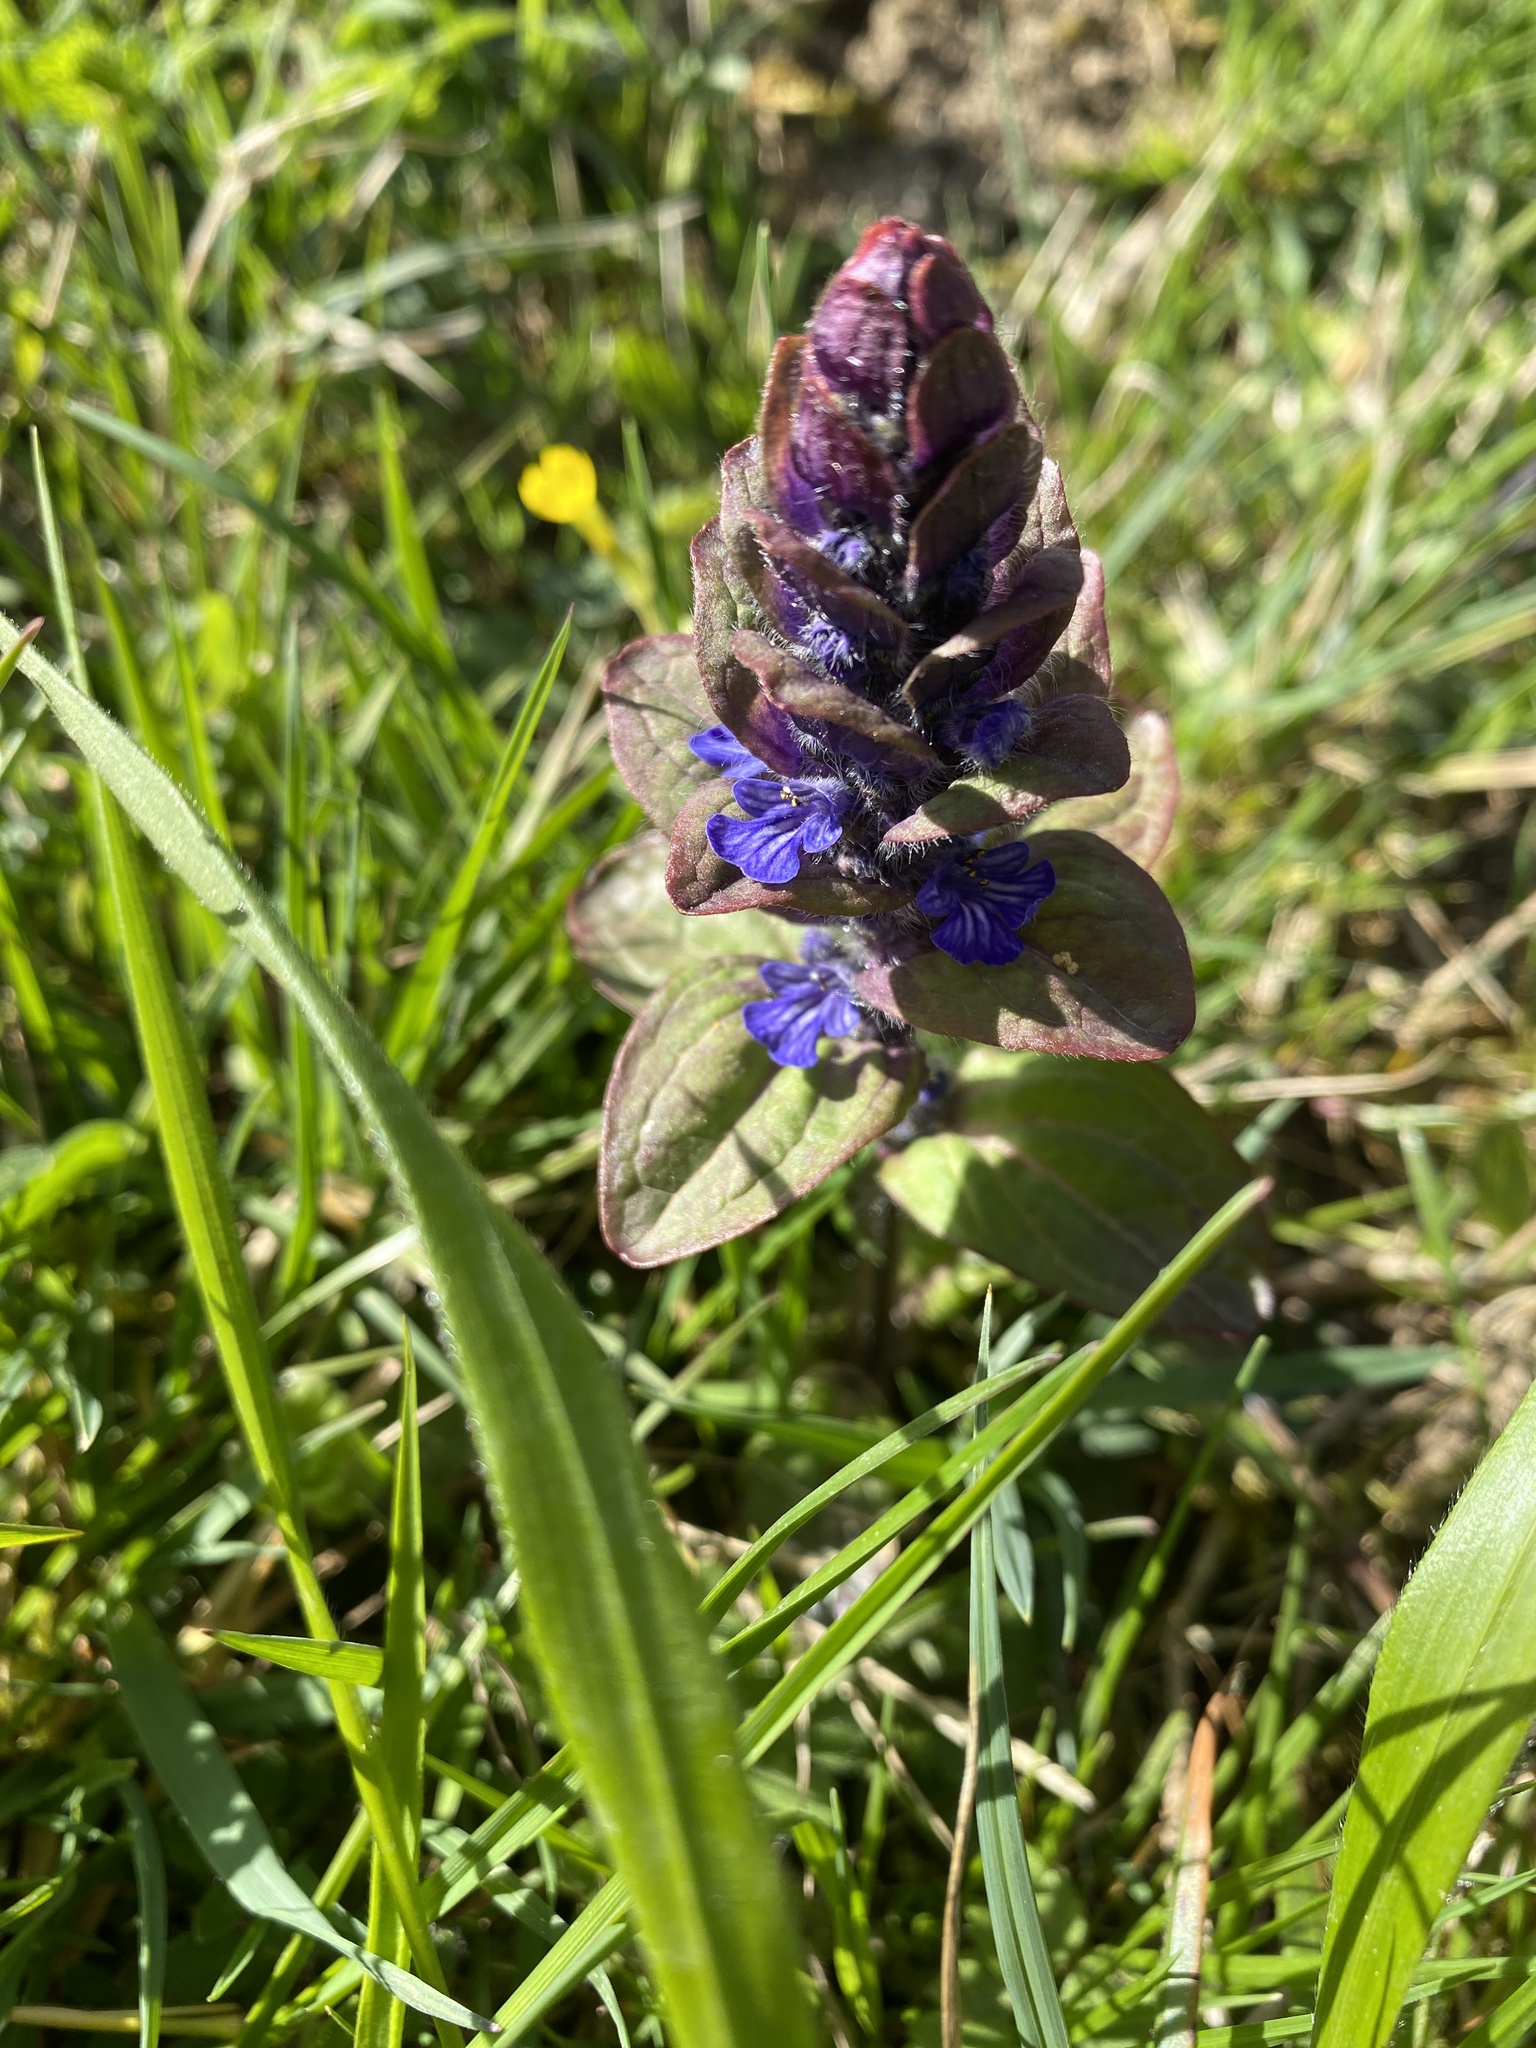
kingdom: Plantae
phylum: Tracheophyta
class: Magnoliopsida
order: Lamiales
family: Lamiaceae
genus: Ajuga
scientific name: Ajuga reptans
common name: Bugle
